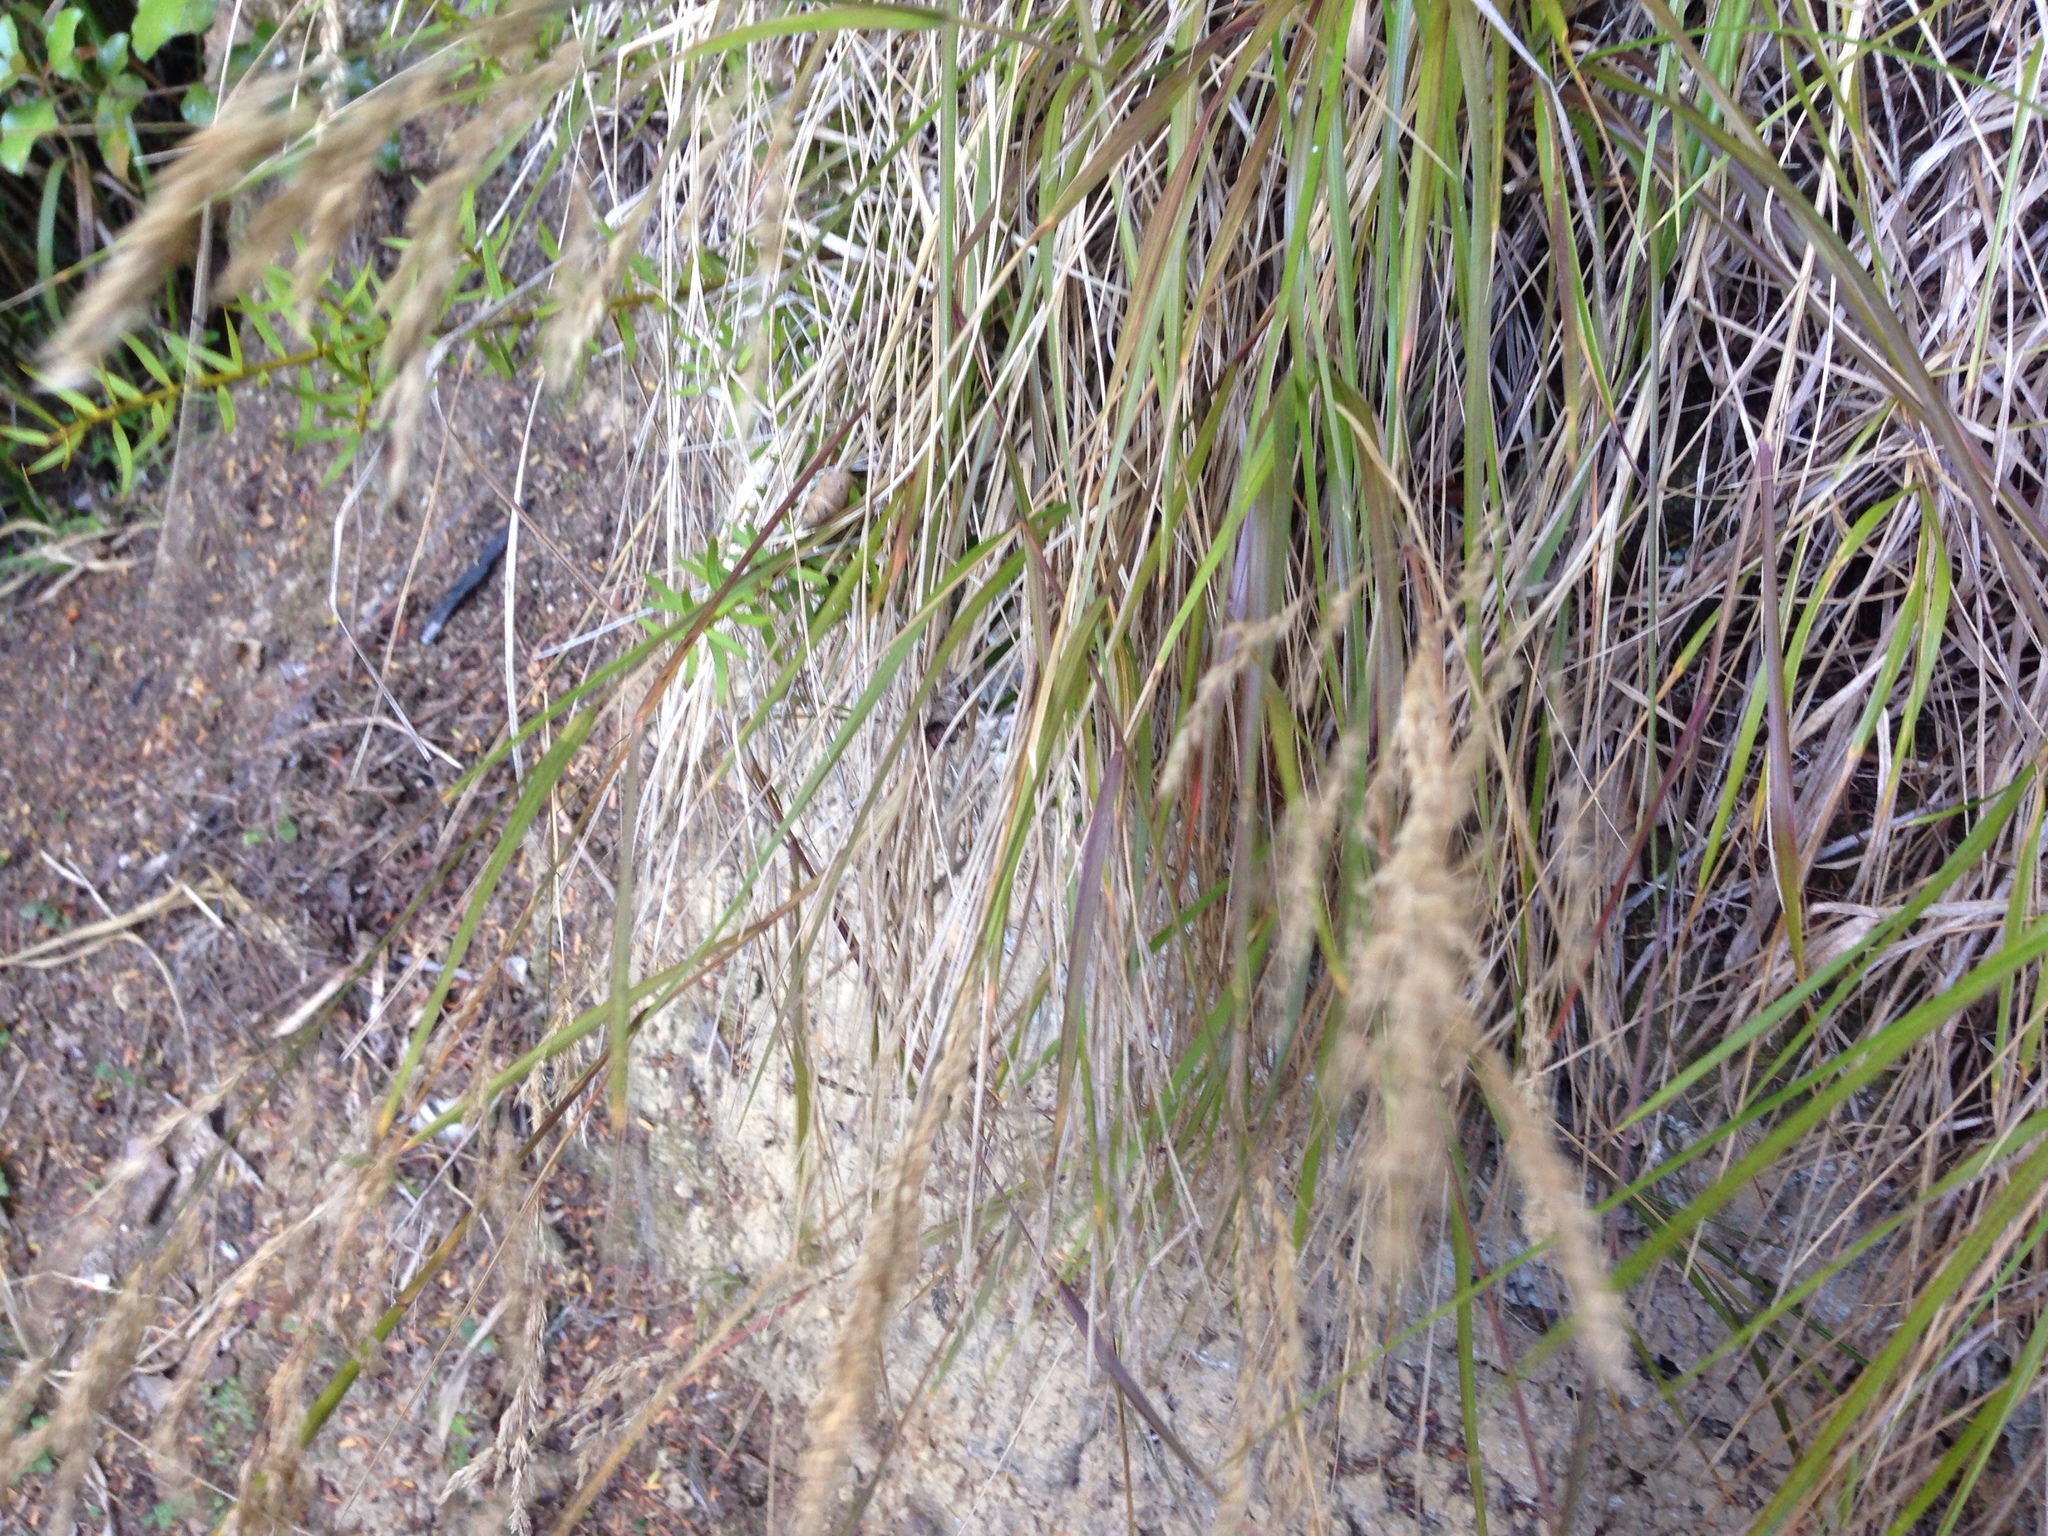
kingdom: Plantae
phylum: Tracheophyta
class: Liliopsida
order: Poales
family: Poaceae
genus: Poa
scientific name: Poa anceps
